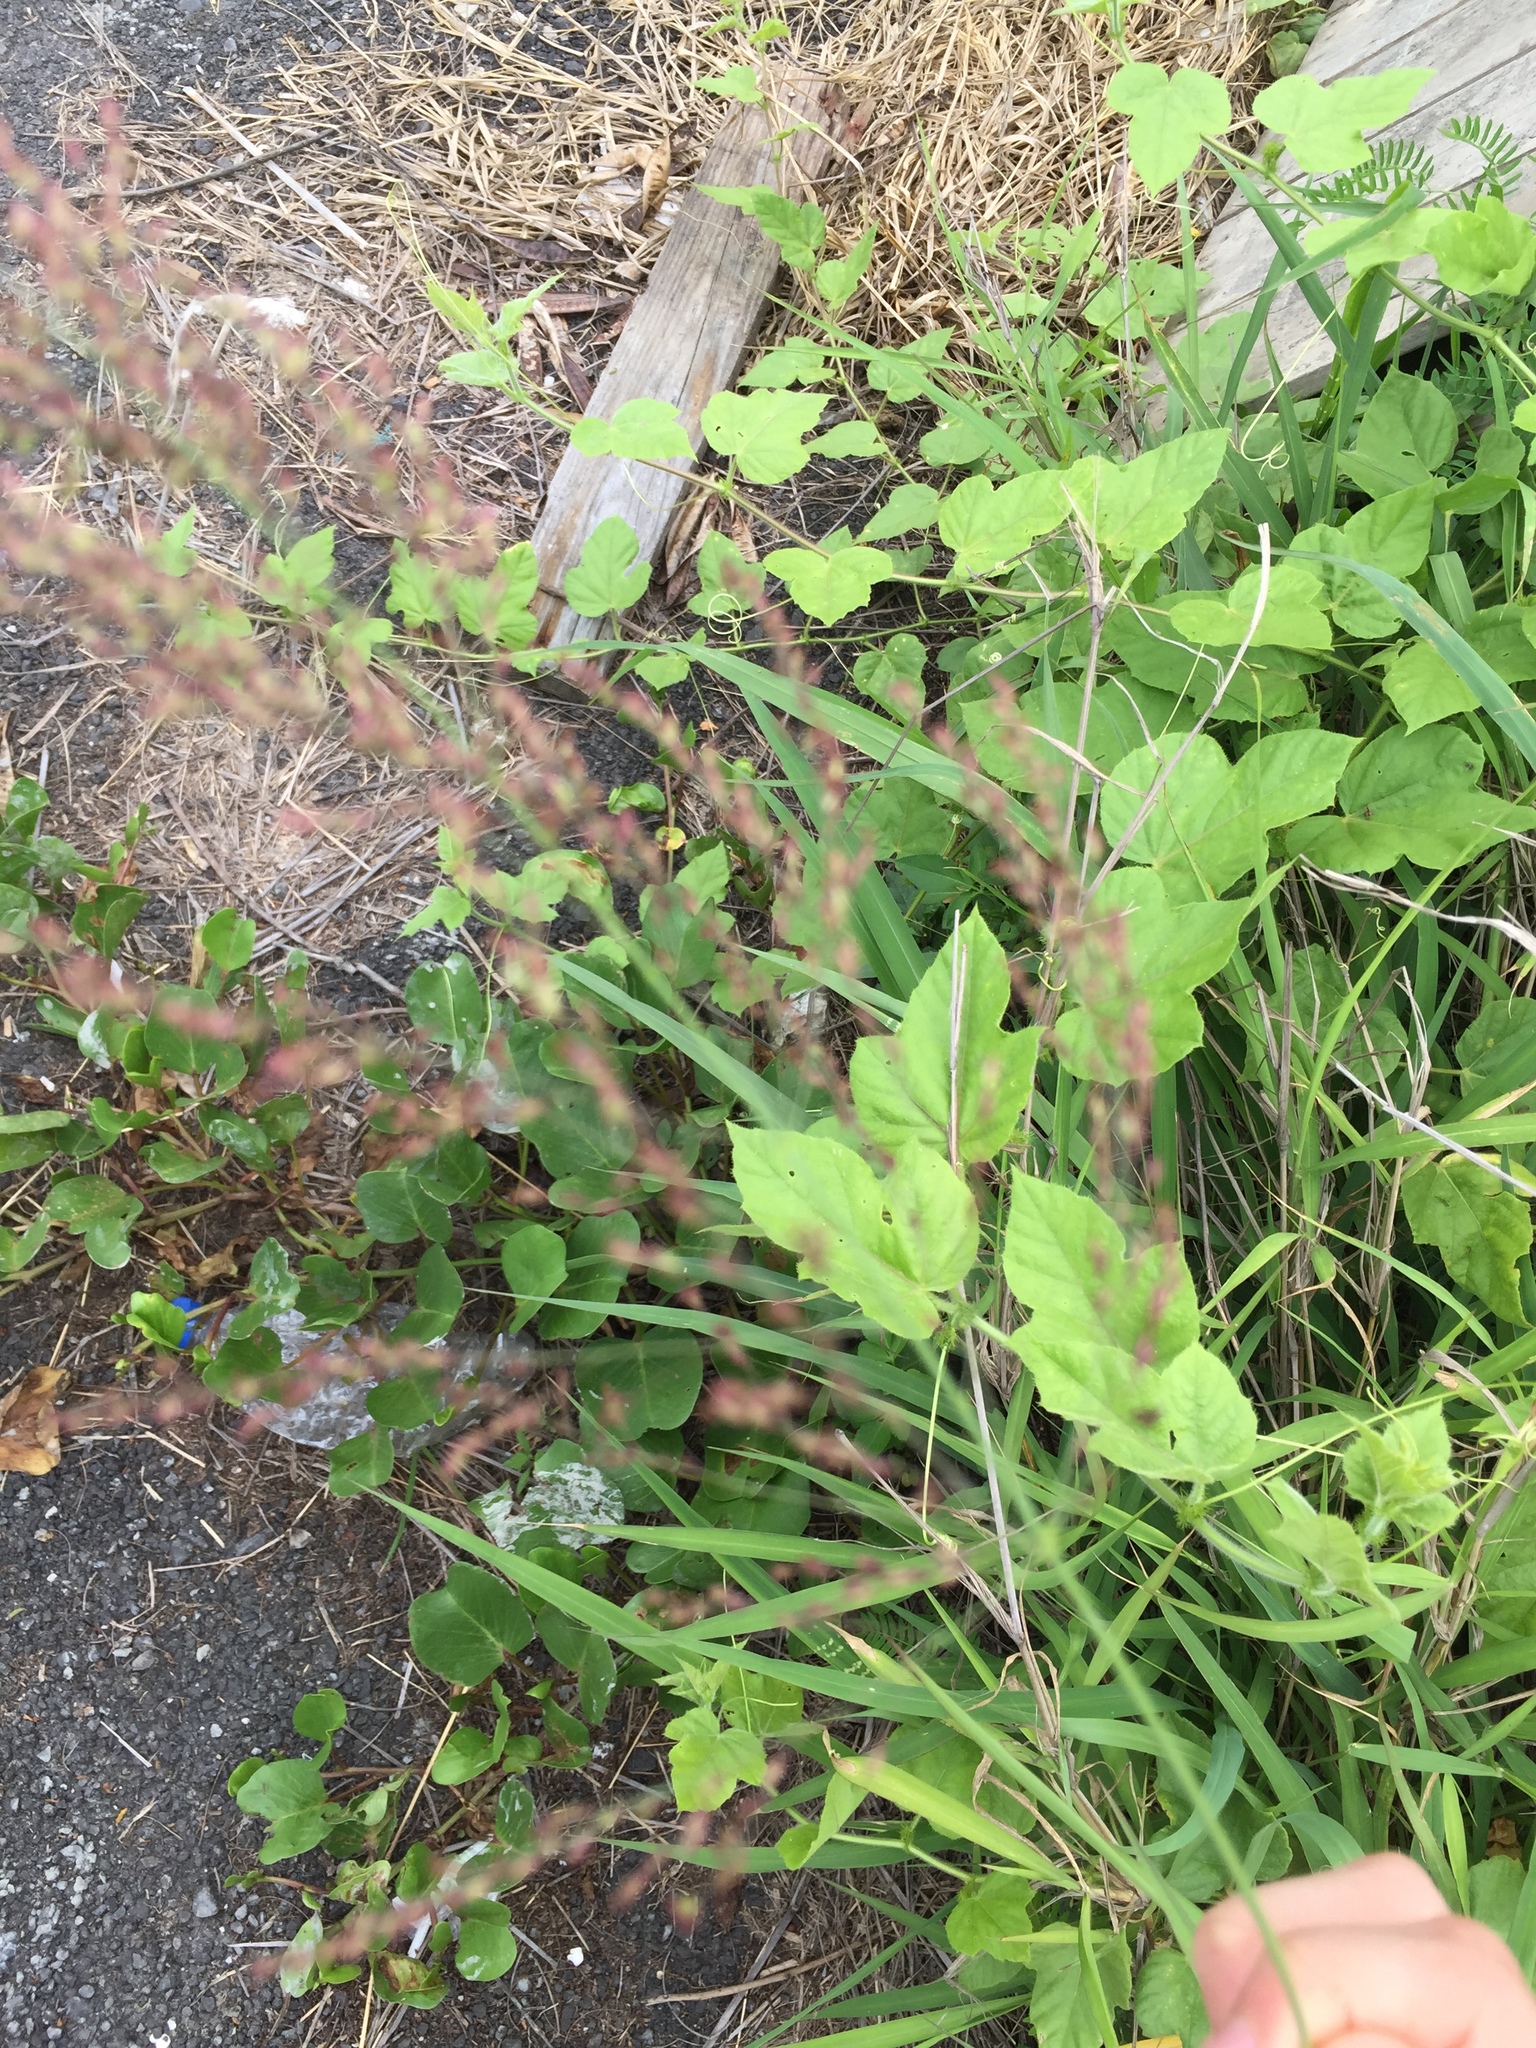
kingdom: Plantae
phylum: Tracheophyta
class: Magnoliopsida
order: Malpighiales
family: Passifloraceae
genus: Passiflora
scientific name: Passiflora vesicaria
